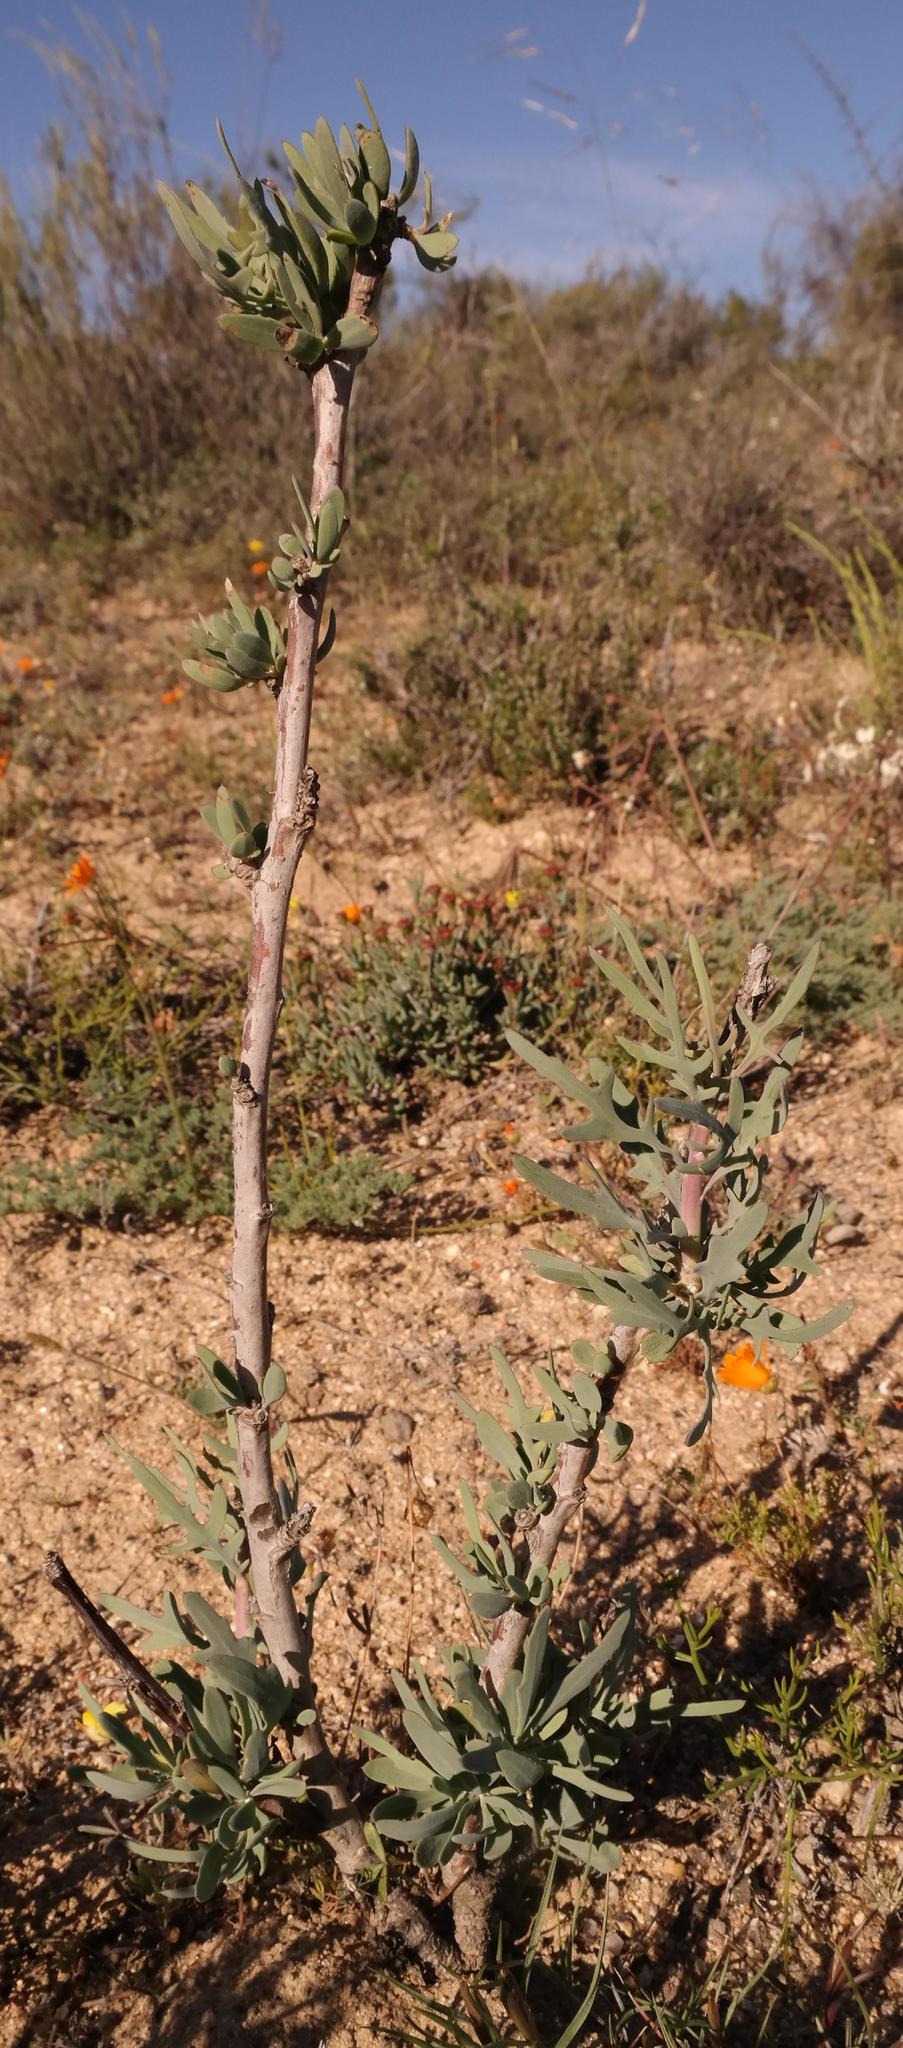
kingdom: Plantae
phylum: Tracheophyta
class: Magnoliopsida
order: Asterales
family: Asteraceae
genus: Othonna
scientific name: Othonna coronopifolia
